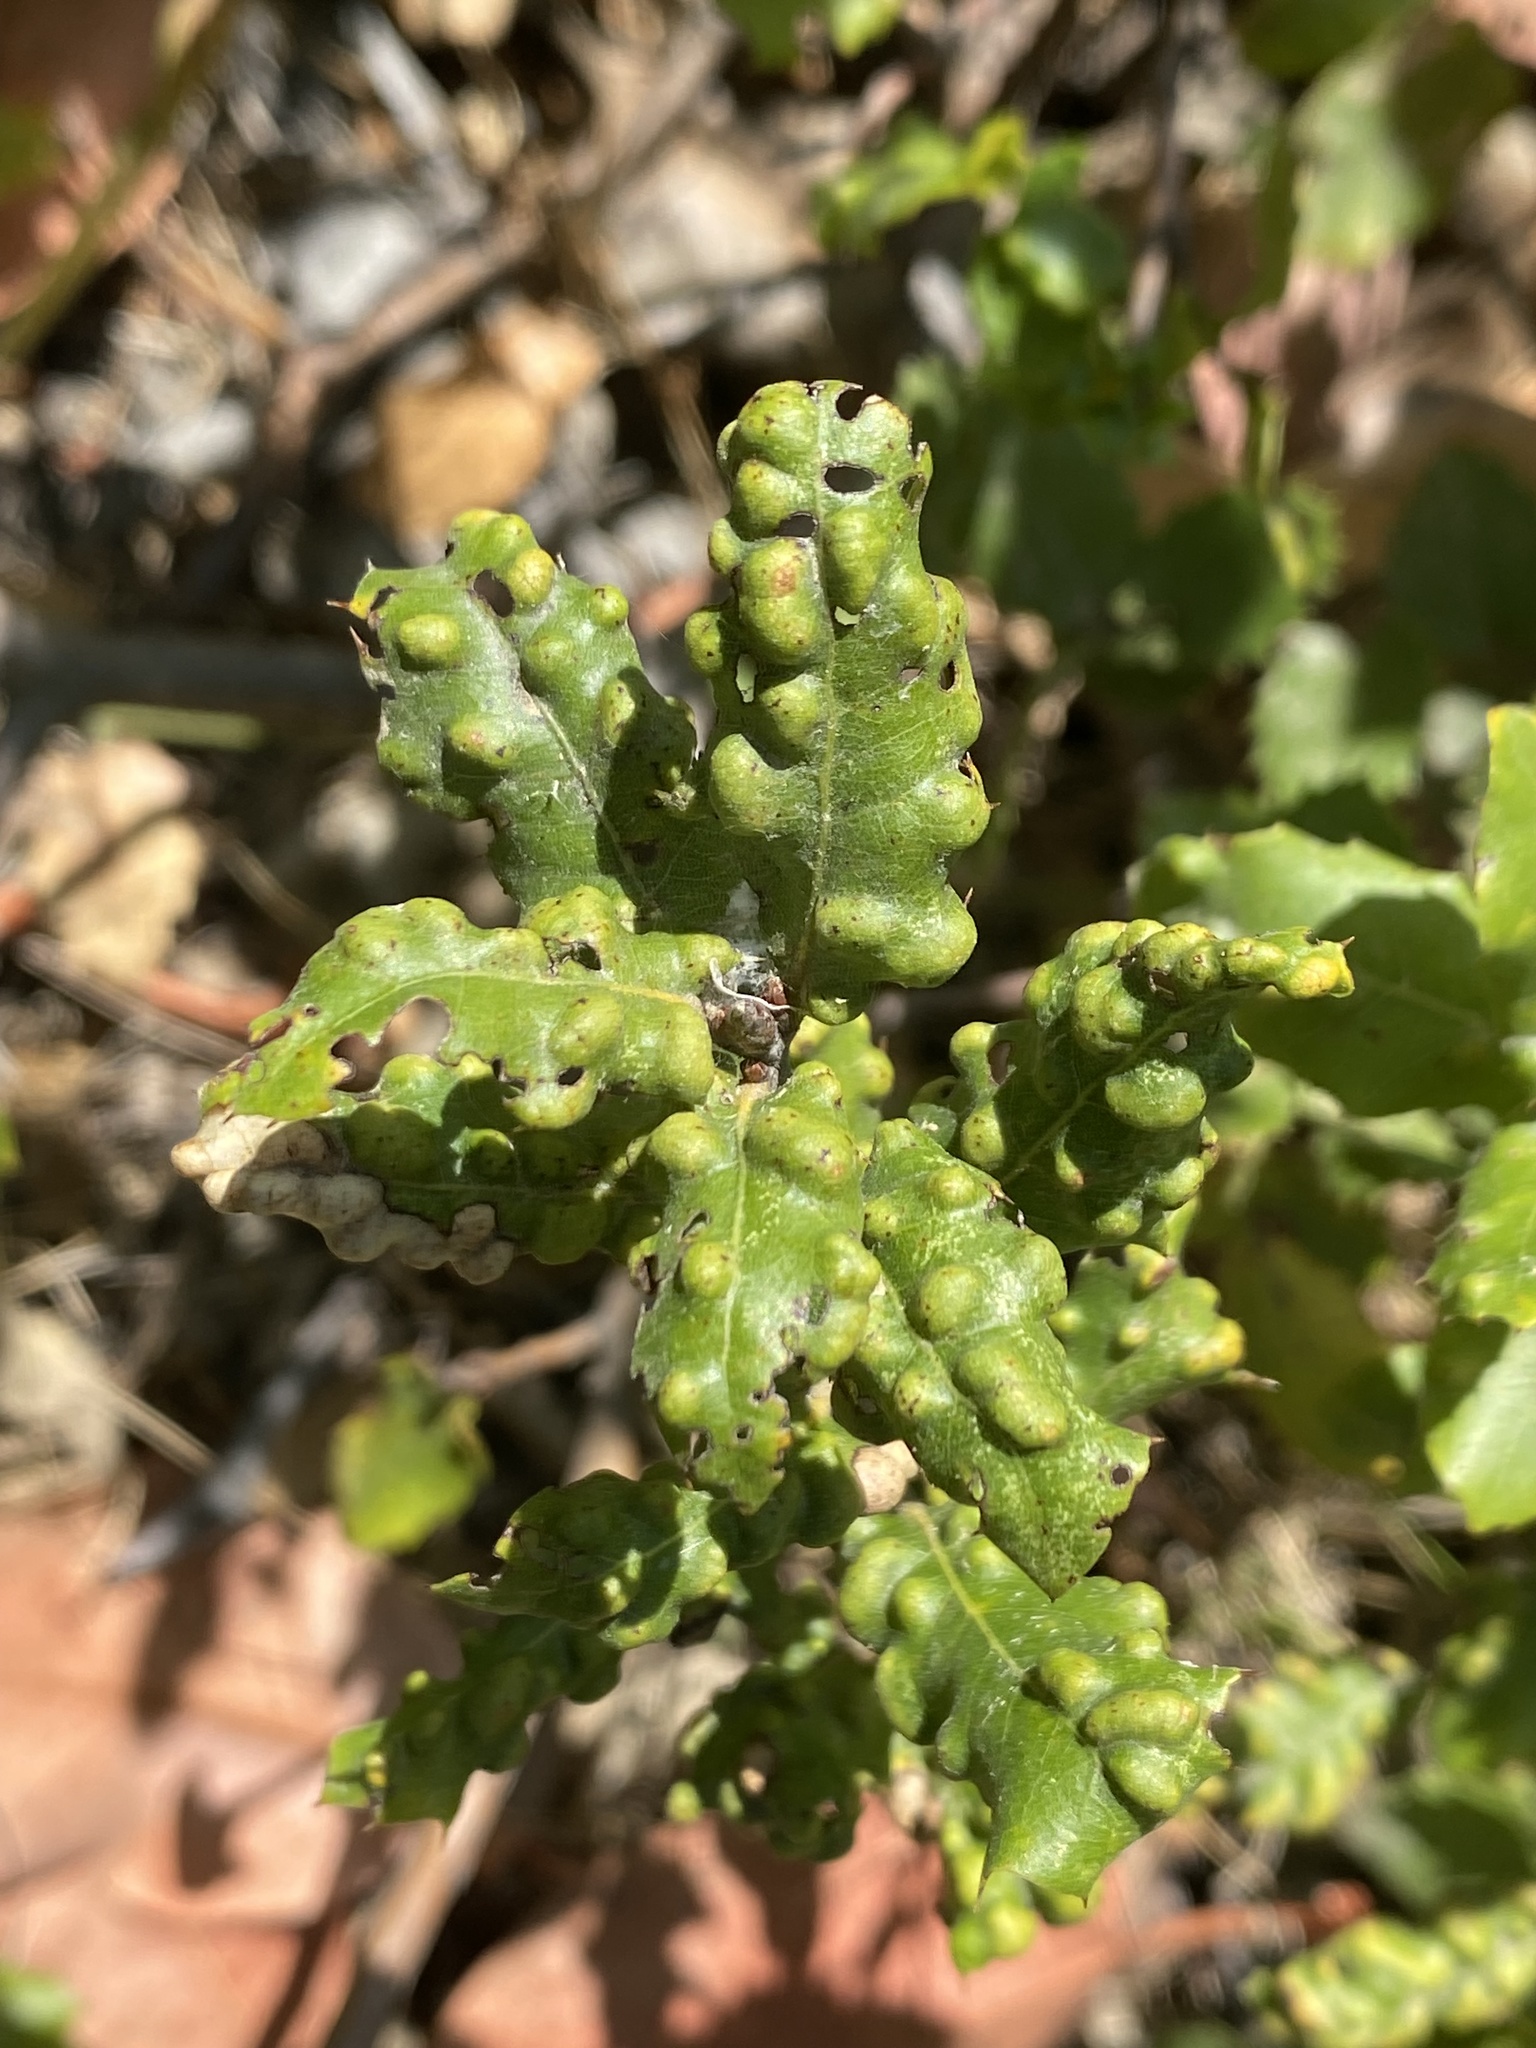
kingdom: Animalia
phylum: Arthropoda
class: Arachnida
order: Trombidiformes
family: Eriophyidae
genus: Aceria
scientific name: Aceria
